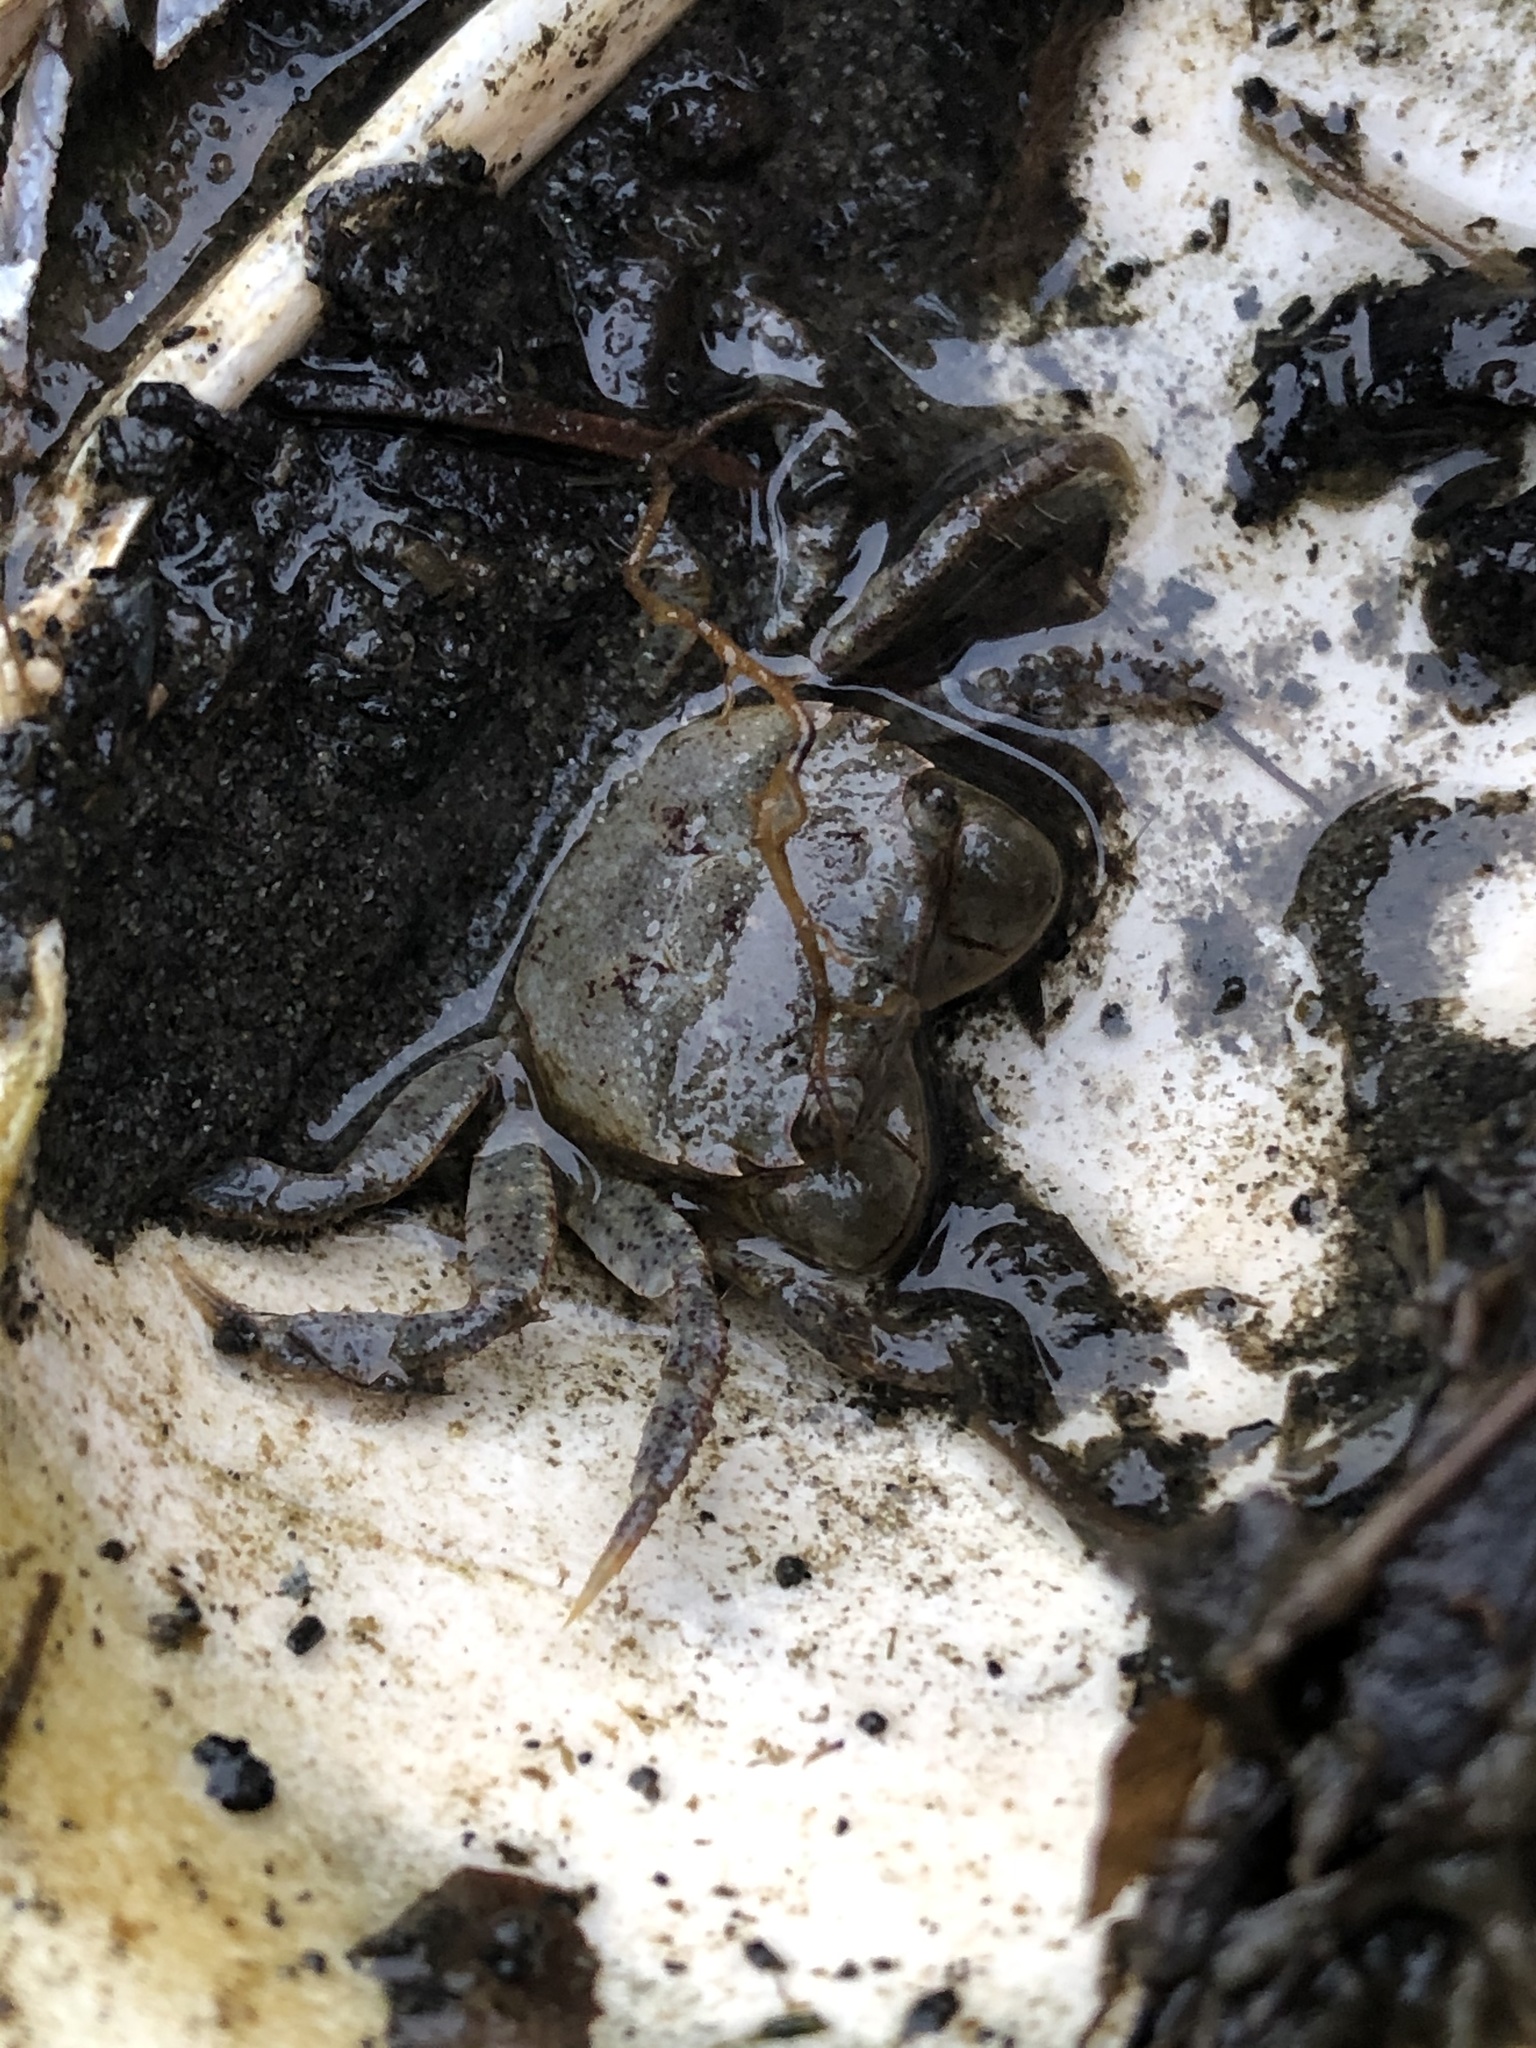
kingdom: Animalia
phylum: Arthropoda
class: Malacostraca
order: Decapoda
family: Varunidae
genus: Hemigrapsus
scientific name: Hemigrapsus oregonensis
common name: Yellow shore crab
